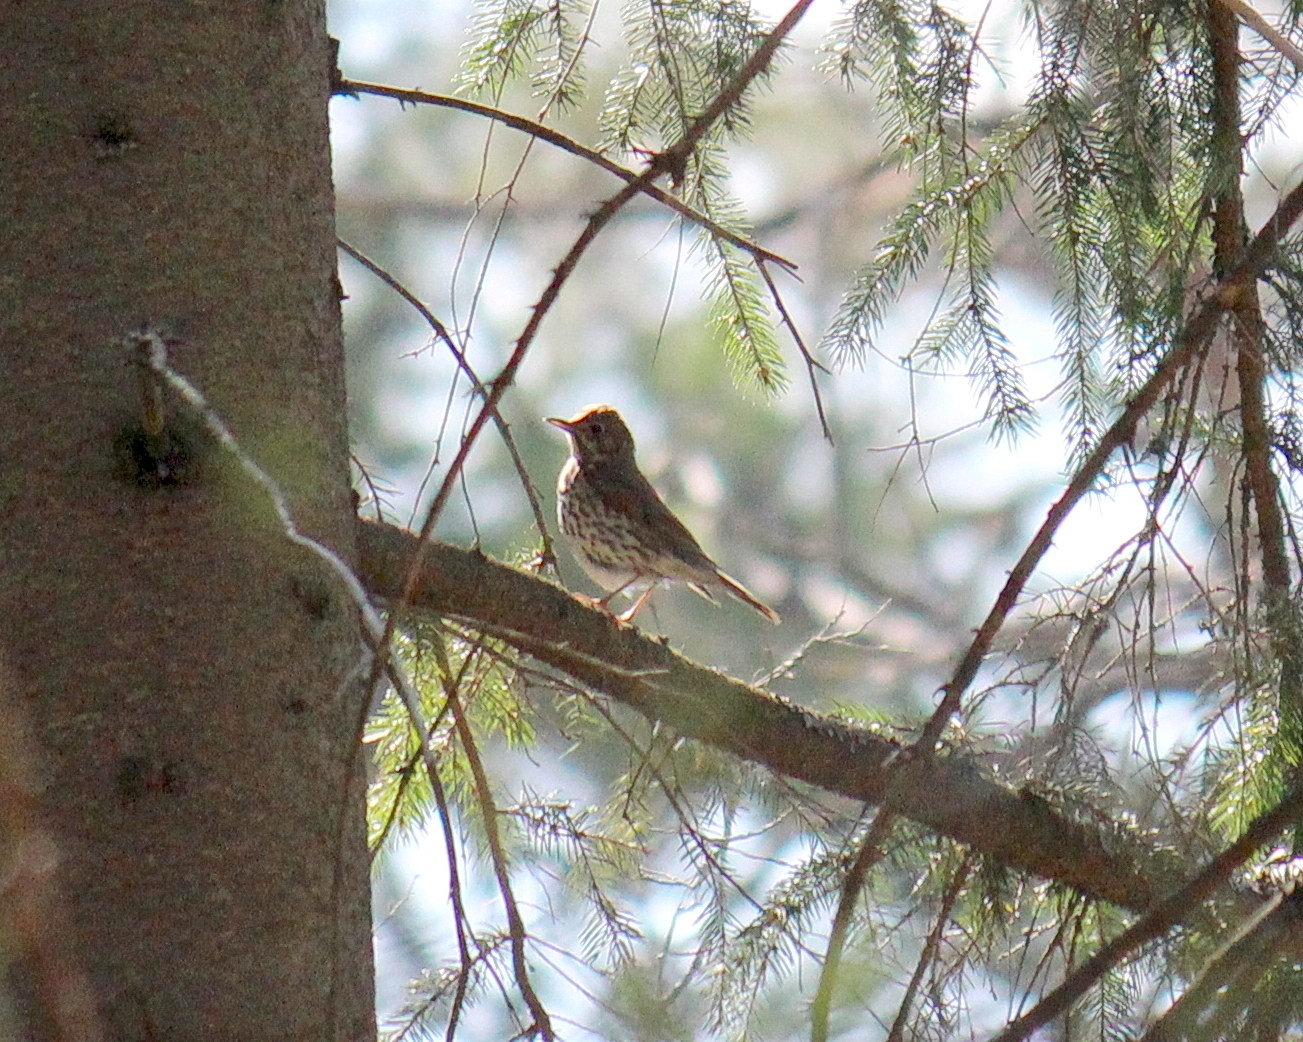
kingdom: Animalia
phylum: Chordata
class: Aves
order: Passeriformes
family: Turdidae
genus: Turdus
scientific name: Turdus philomelos
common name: Song thrush
